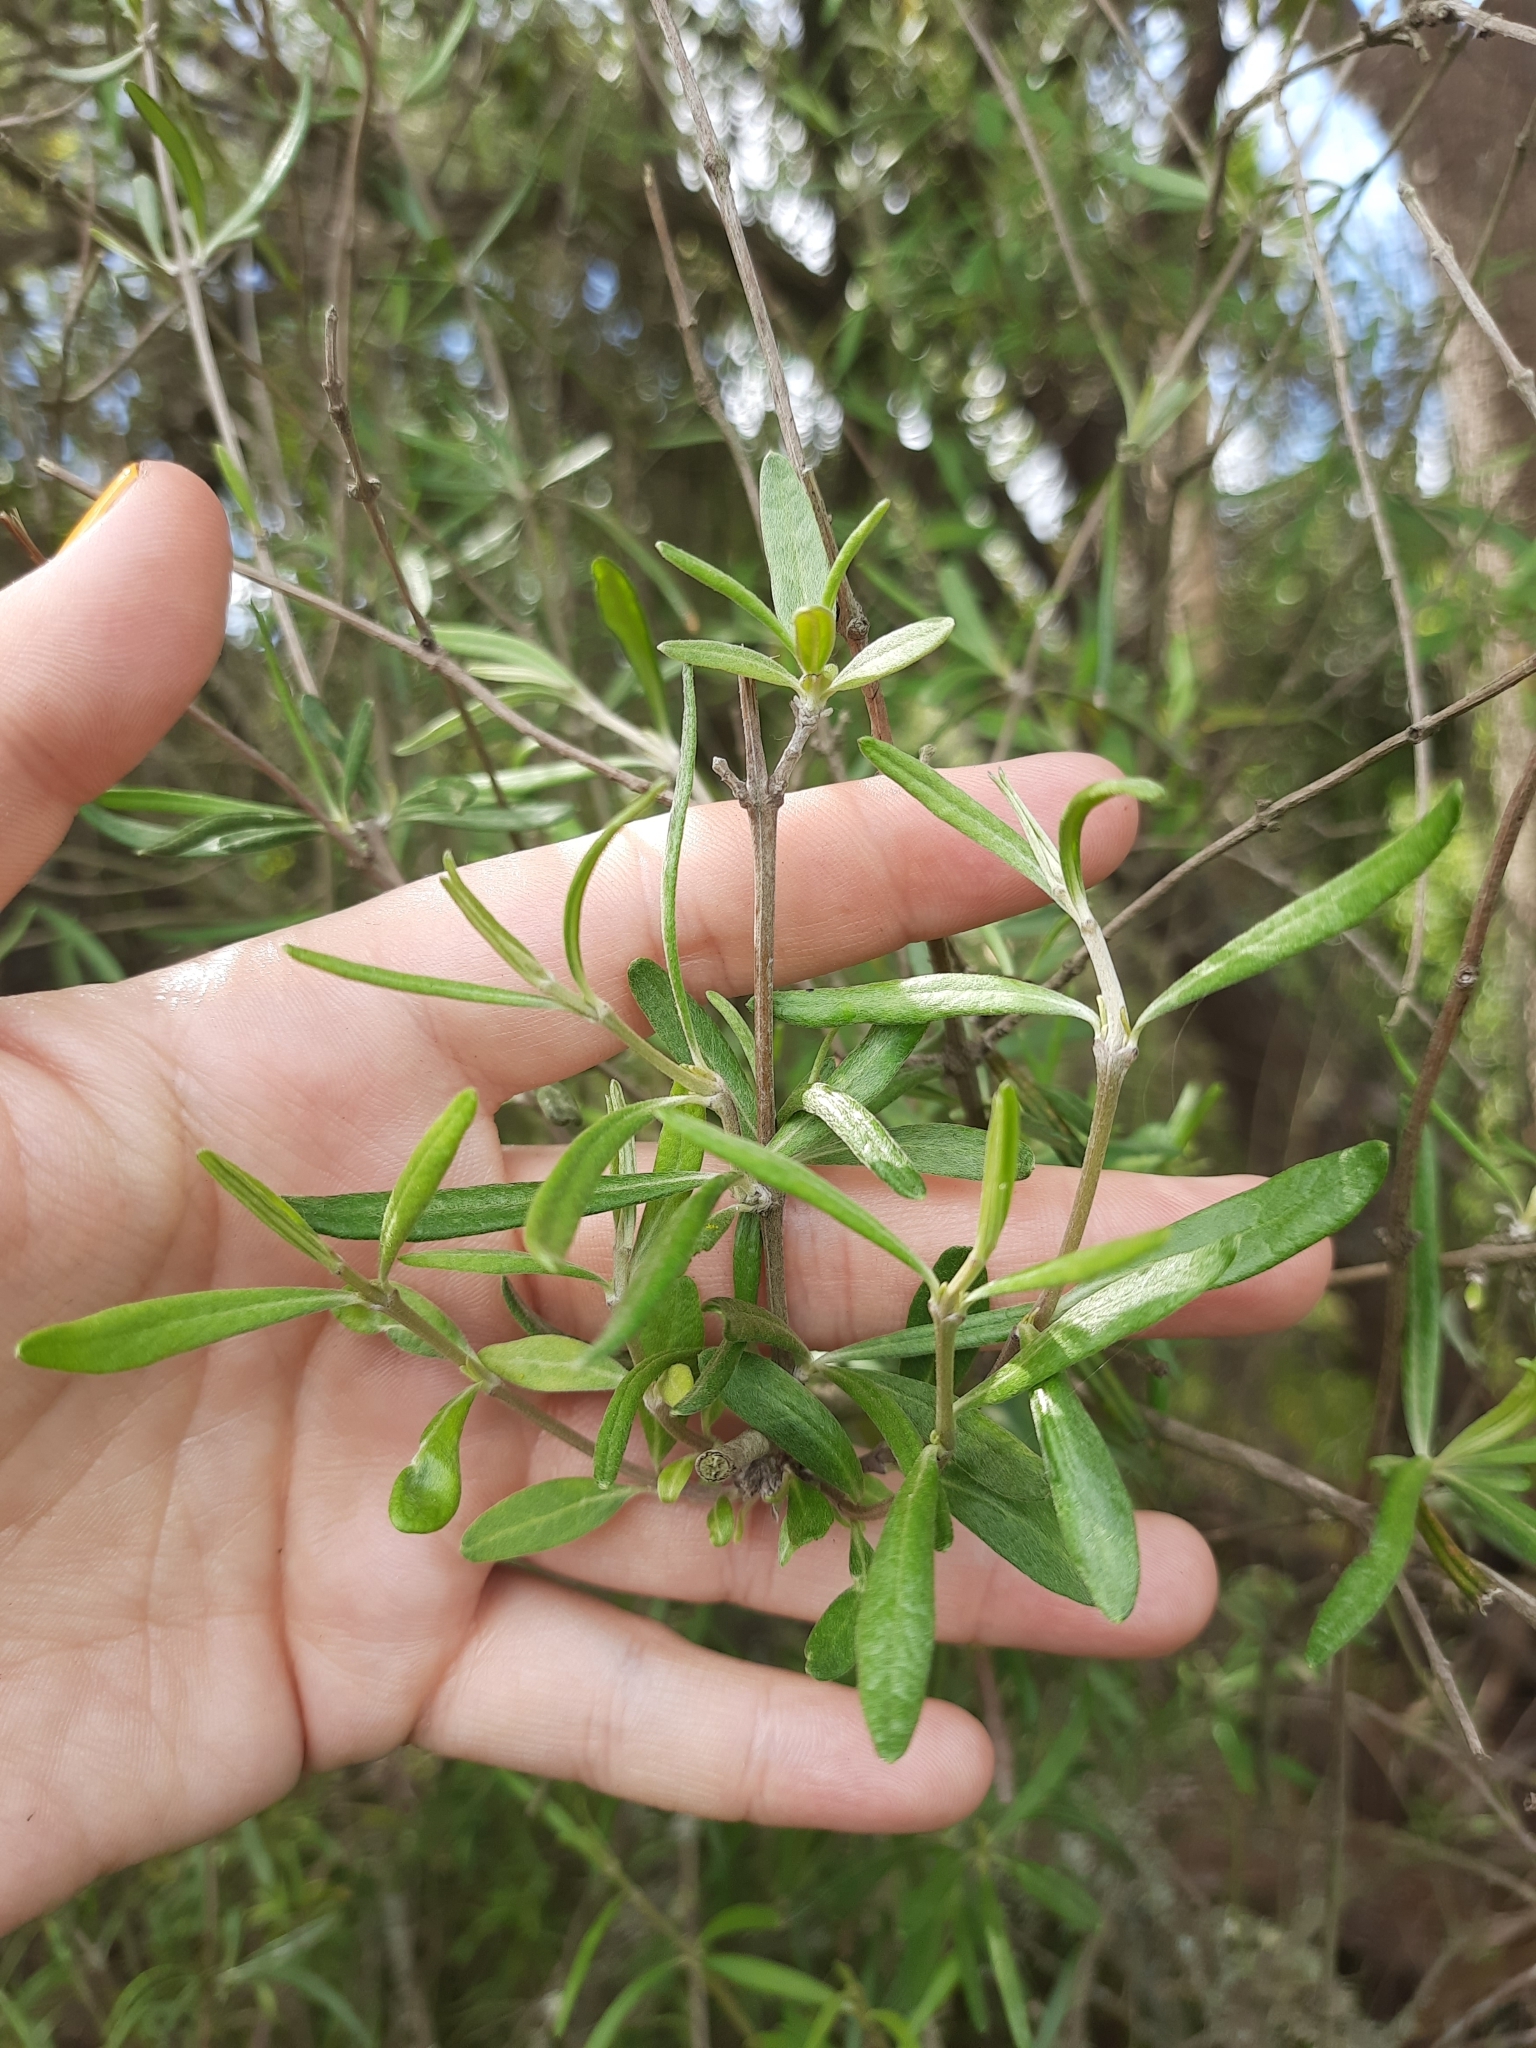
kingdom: Plantae
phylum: Tracheophyta
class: Magnoliopsida
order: Asterales
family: Asteraceae
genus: Olearia
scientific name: Olearia lineata
